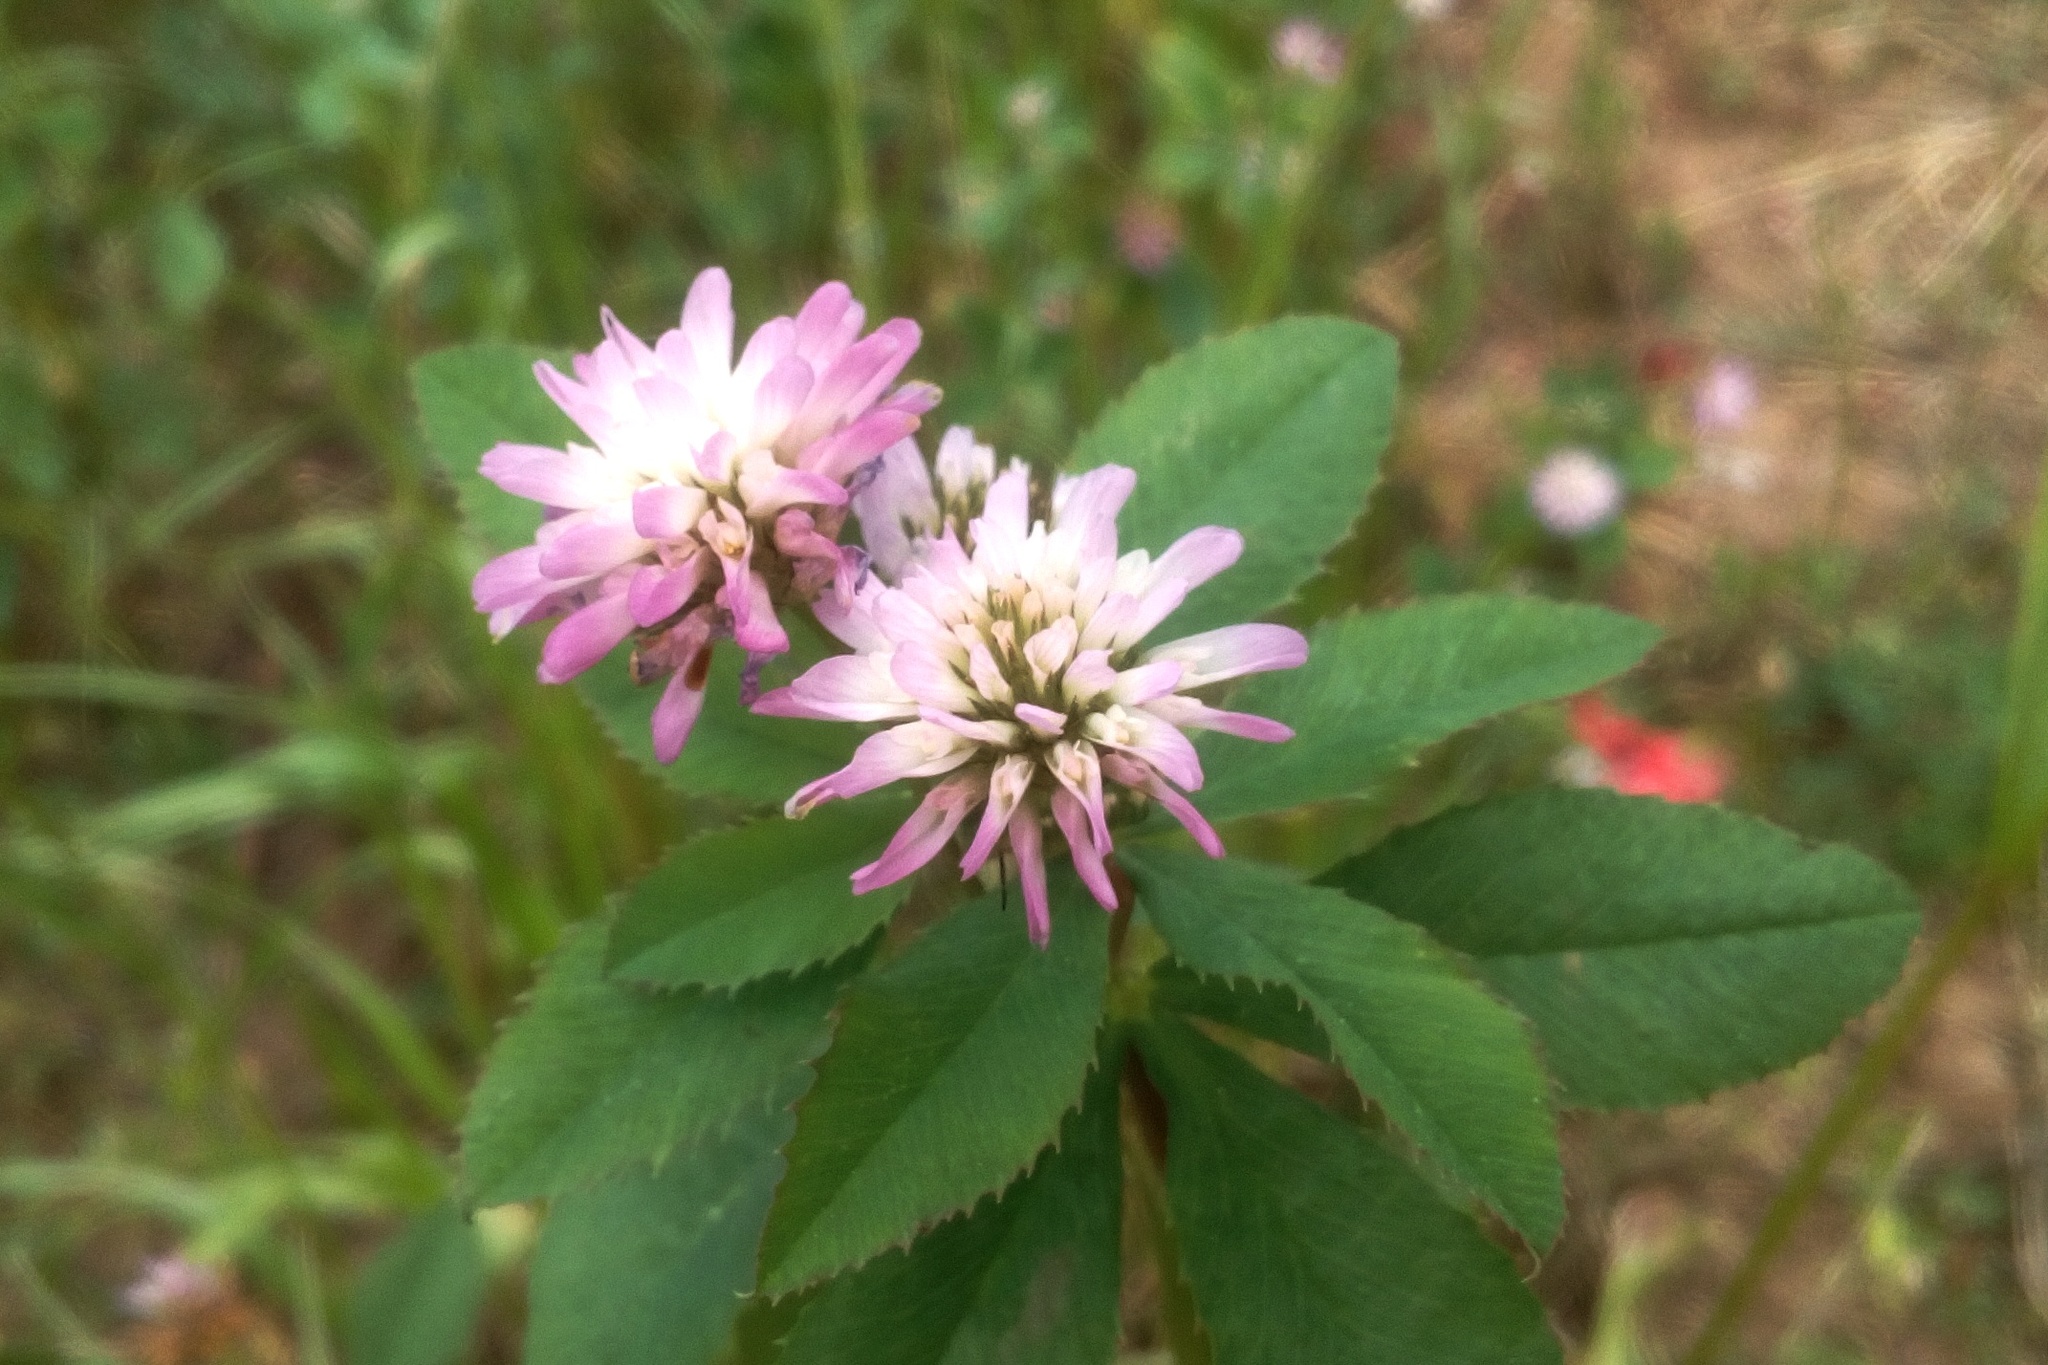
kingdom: Plantae
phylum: Tracheophyta
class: Magnoliopsida
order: Fabales
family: Fabaceae
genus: Trifolium
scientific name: Trifolium resupinatum
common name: Reversed clover
